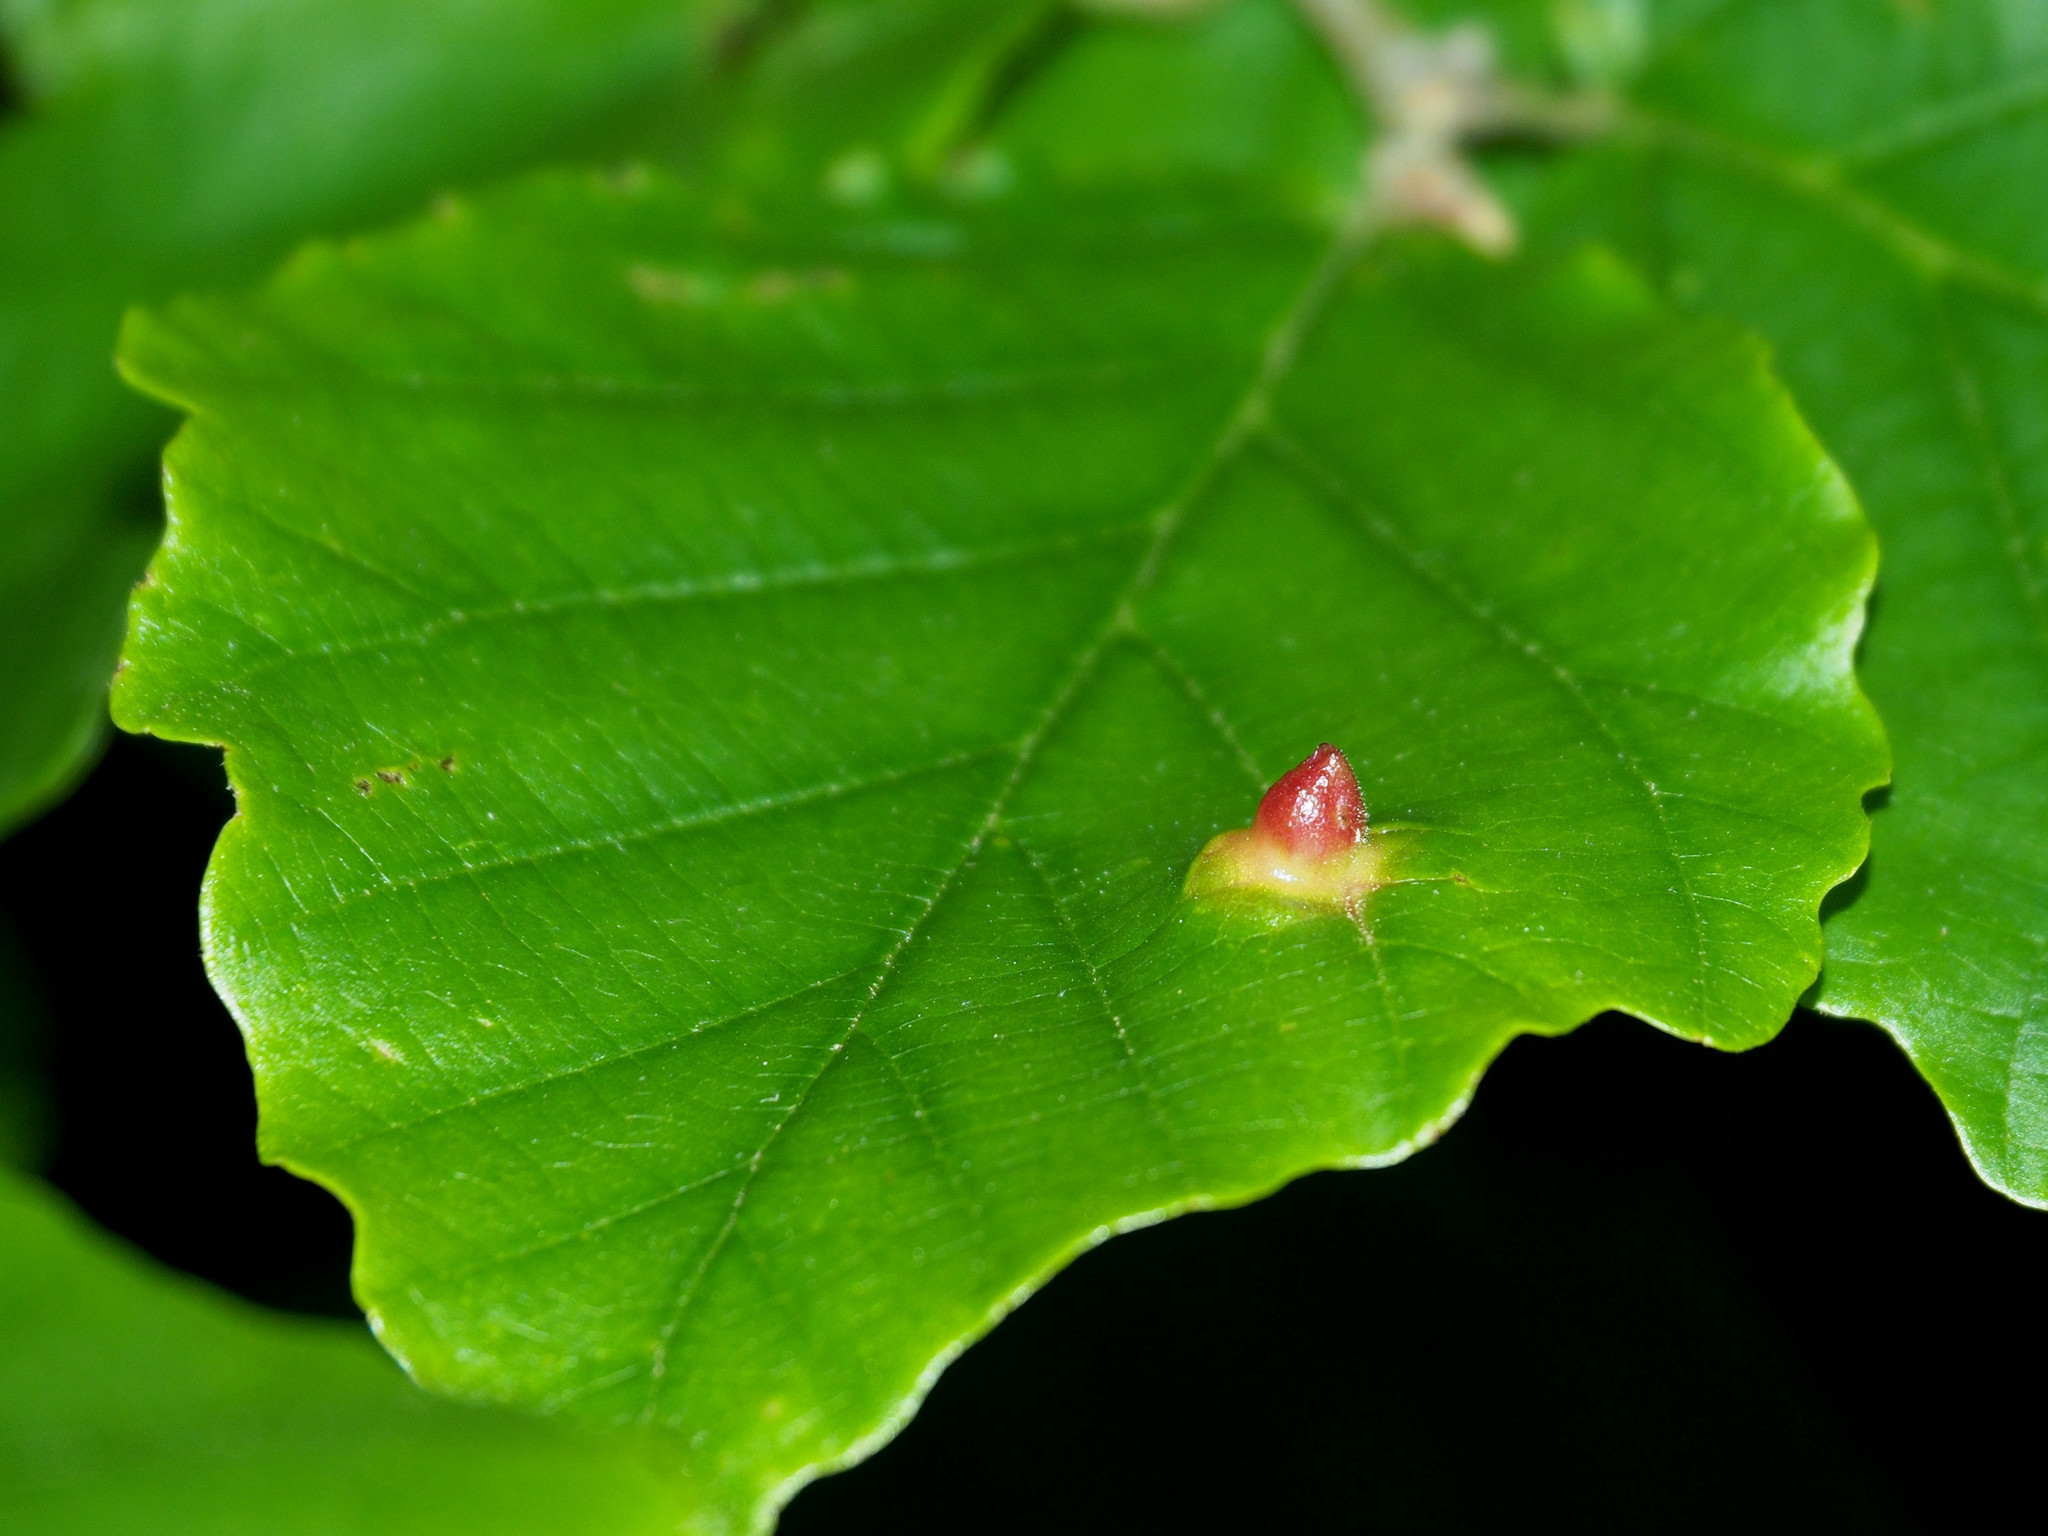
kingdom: Animalia
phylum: Arthropoda
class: Insecta
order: Hemiptera
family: Aphididae
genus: Hormaphis
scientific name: Hormaphis hamamelidis
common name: Witch-hazel cone gall aphid
